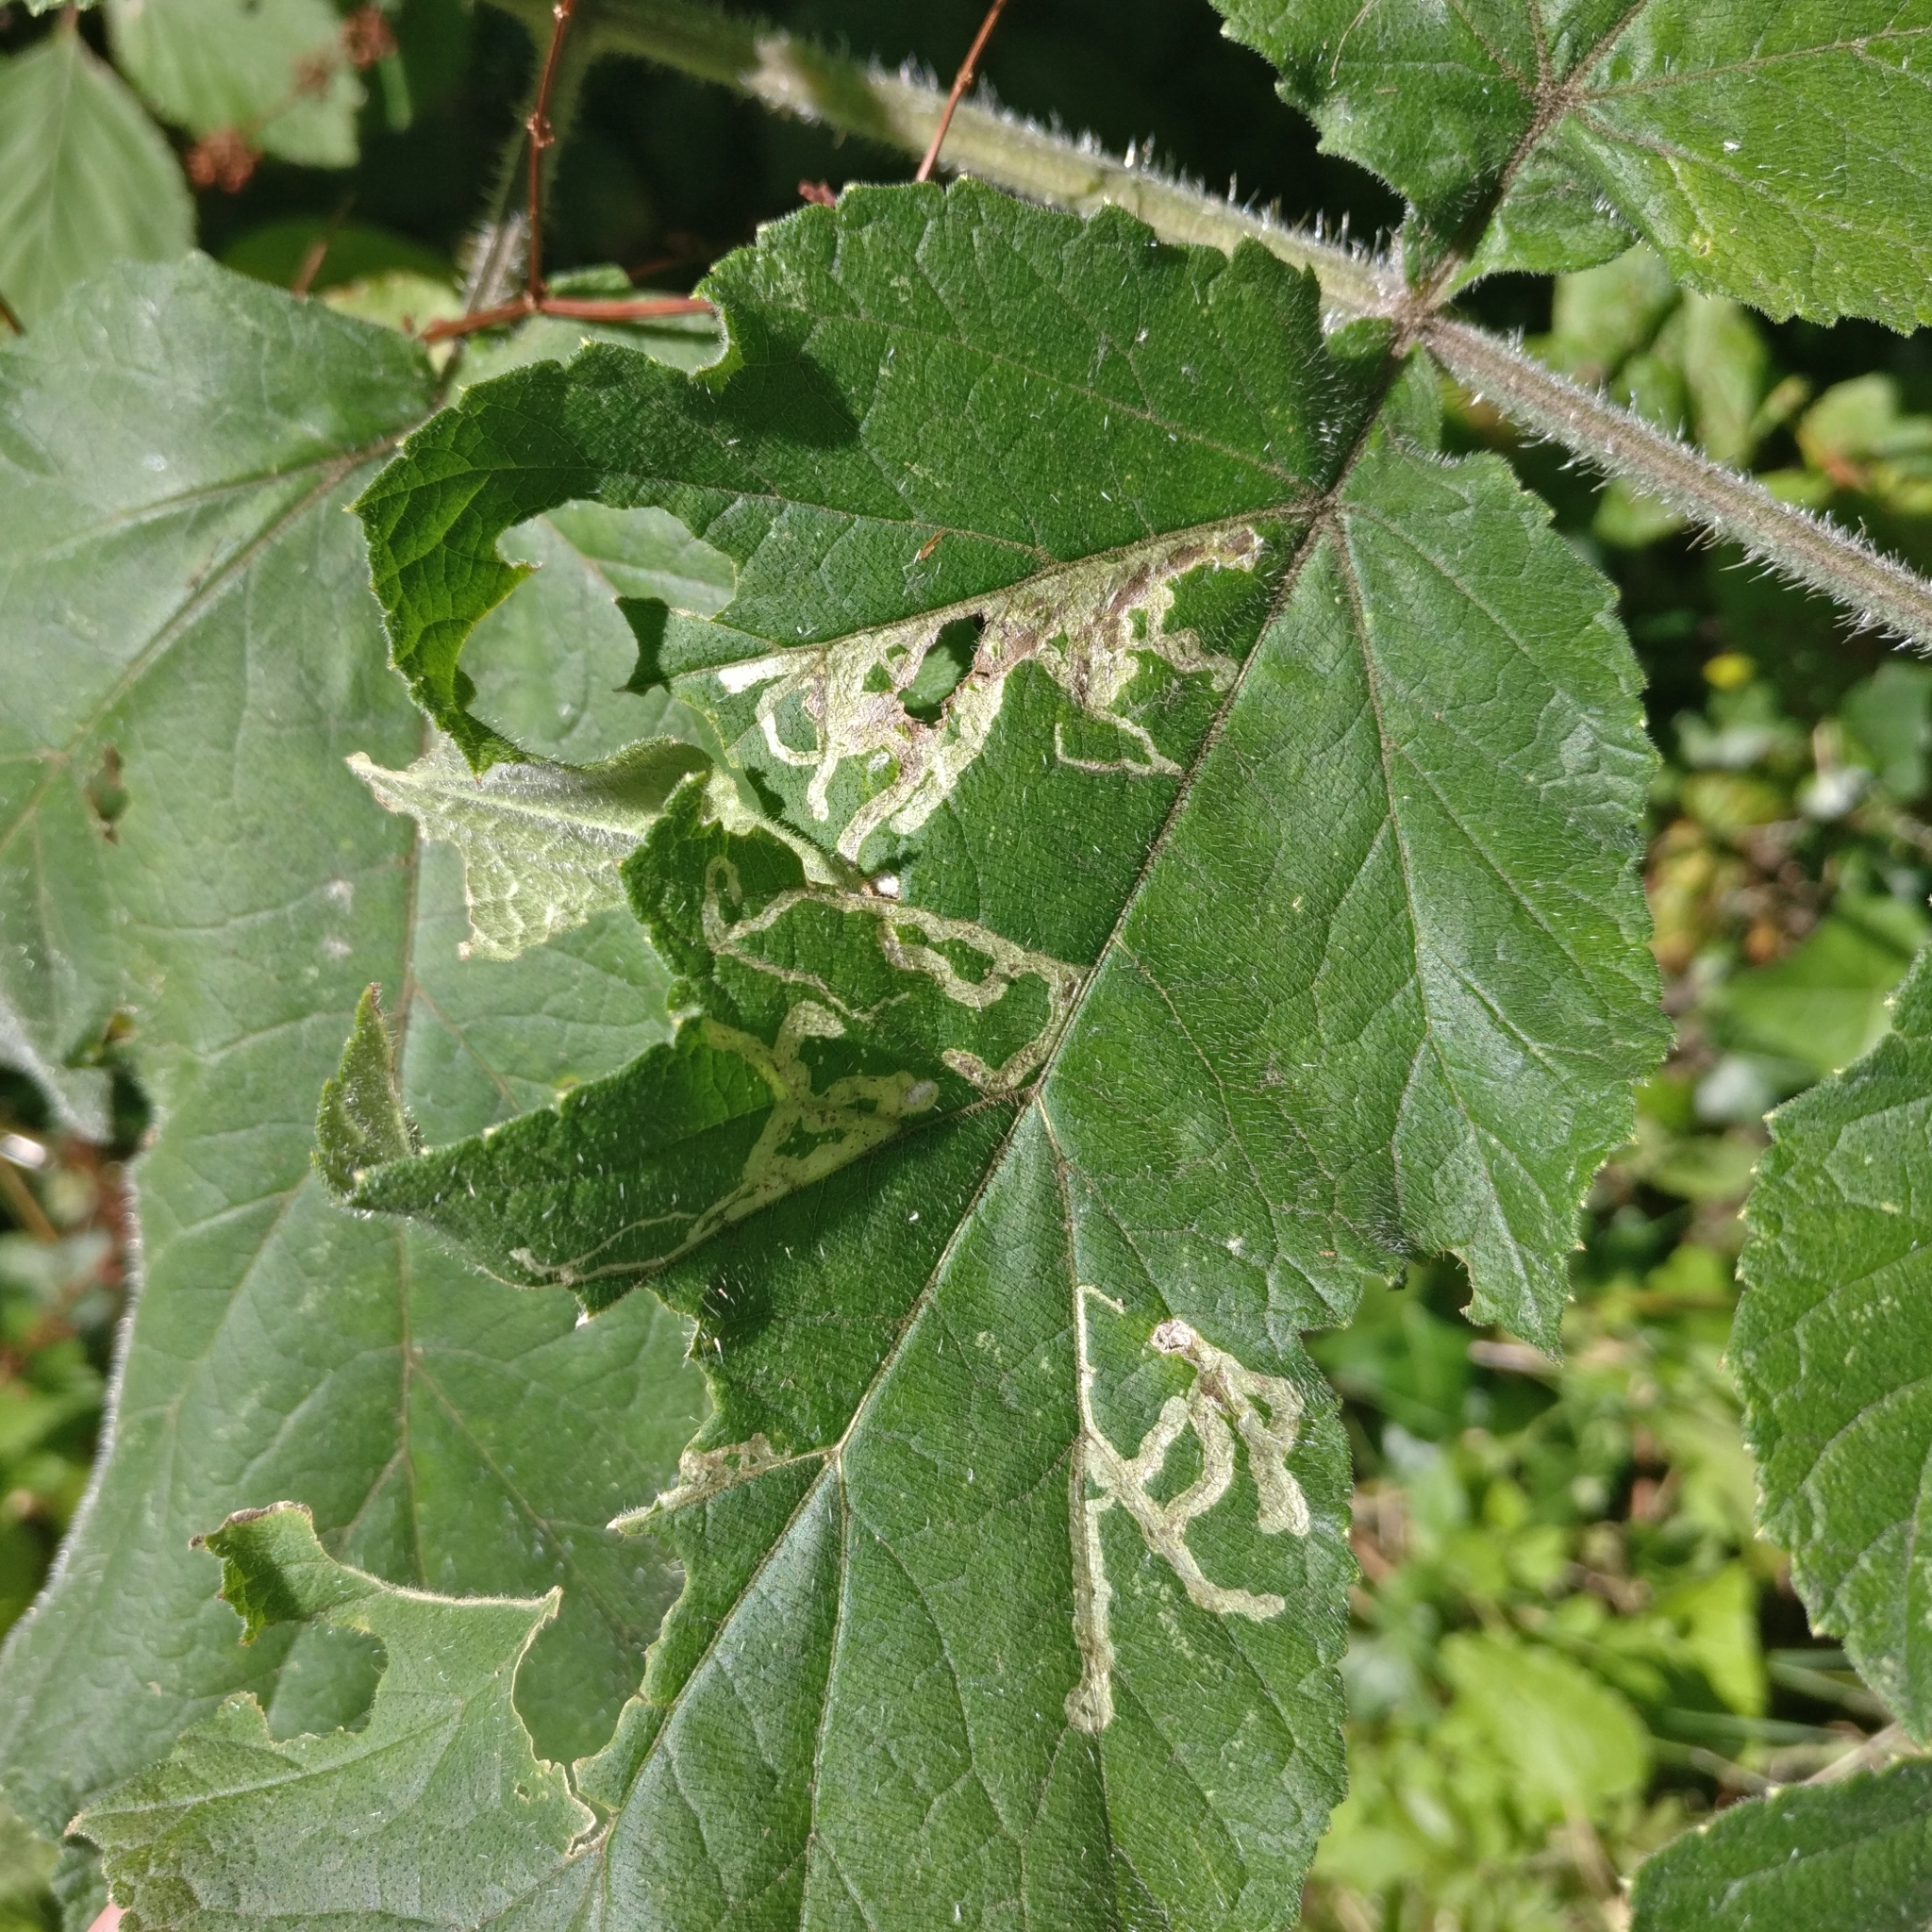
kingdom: Animalia
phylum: Arthropoda
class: Insecta
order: Diptera
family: Agromyzidae
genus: Phytomyza
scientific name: Phytomyza
